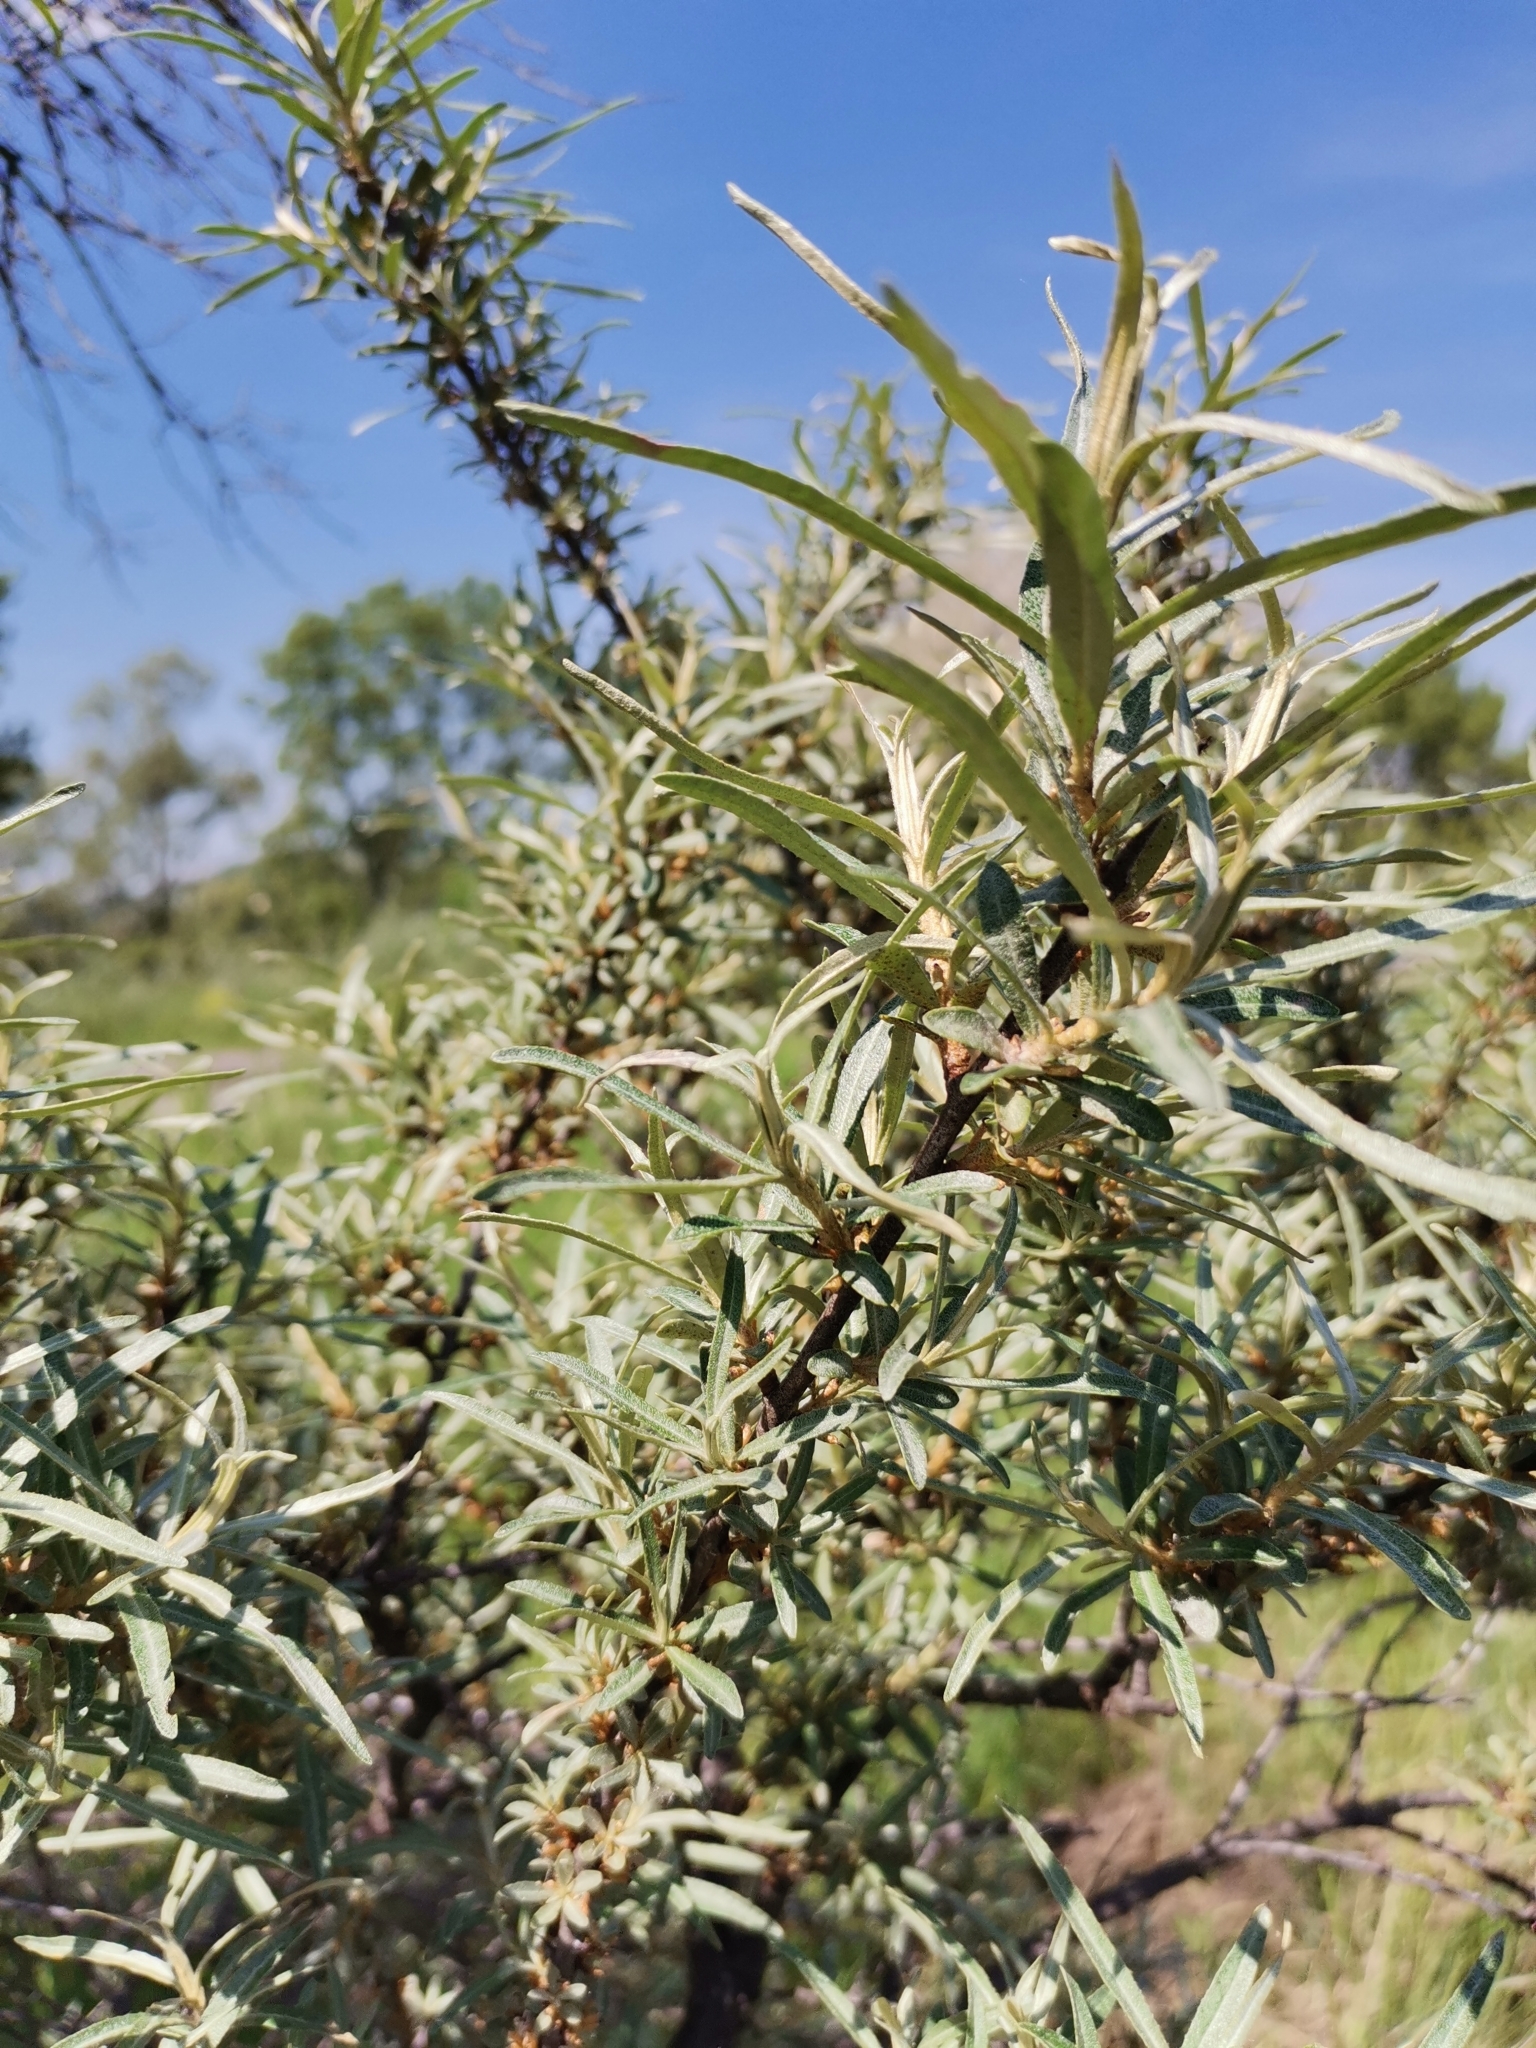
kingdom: Plantae
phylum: Tracheophyta
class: Magnoliopsida
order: Rosales
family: Elaeagnaceae
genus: Hippophae
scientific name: Hippophae rhamnoides
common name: Sea-buckthorn
